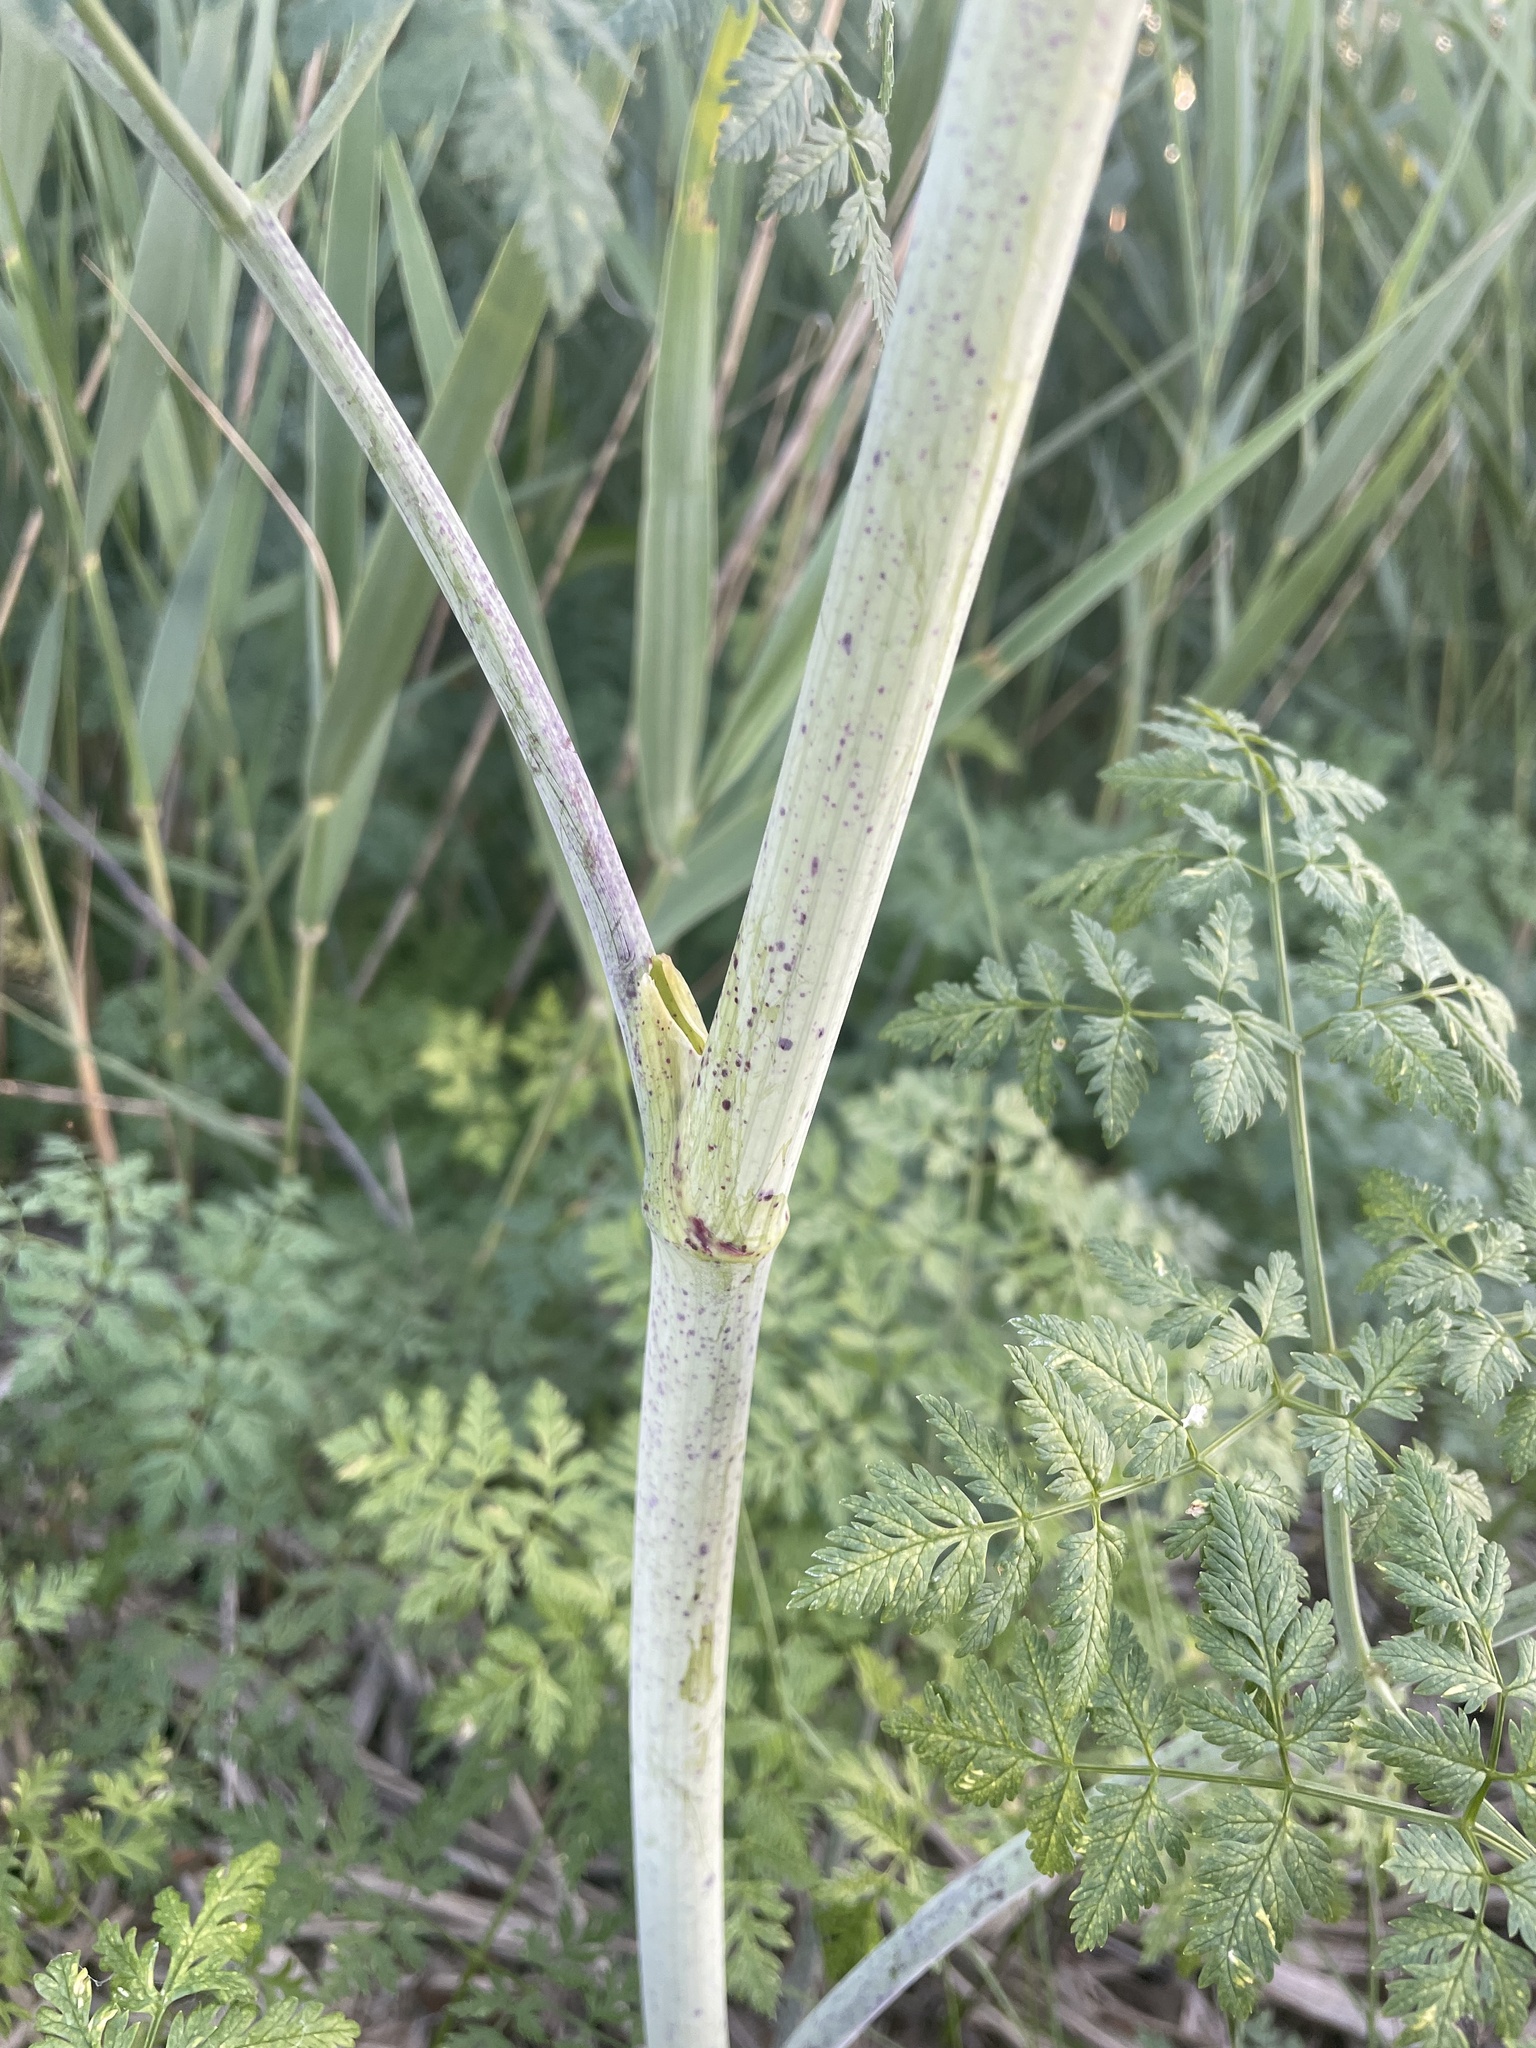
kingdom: Plantae
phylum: Tracheophyta
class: Magnoliopsida
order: Apiales
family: Apiaceae
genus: Conium
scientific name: Conium maculatum
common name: Hemlock
